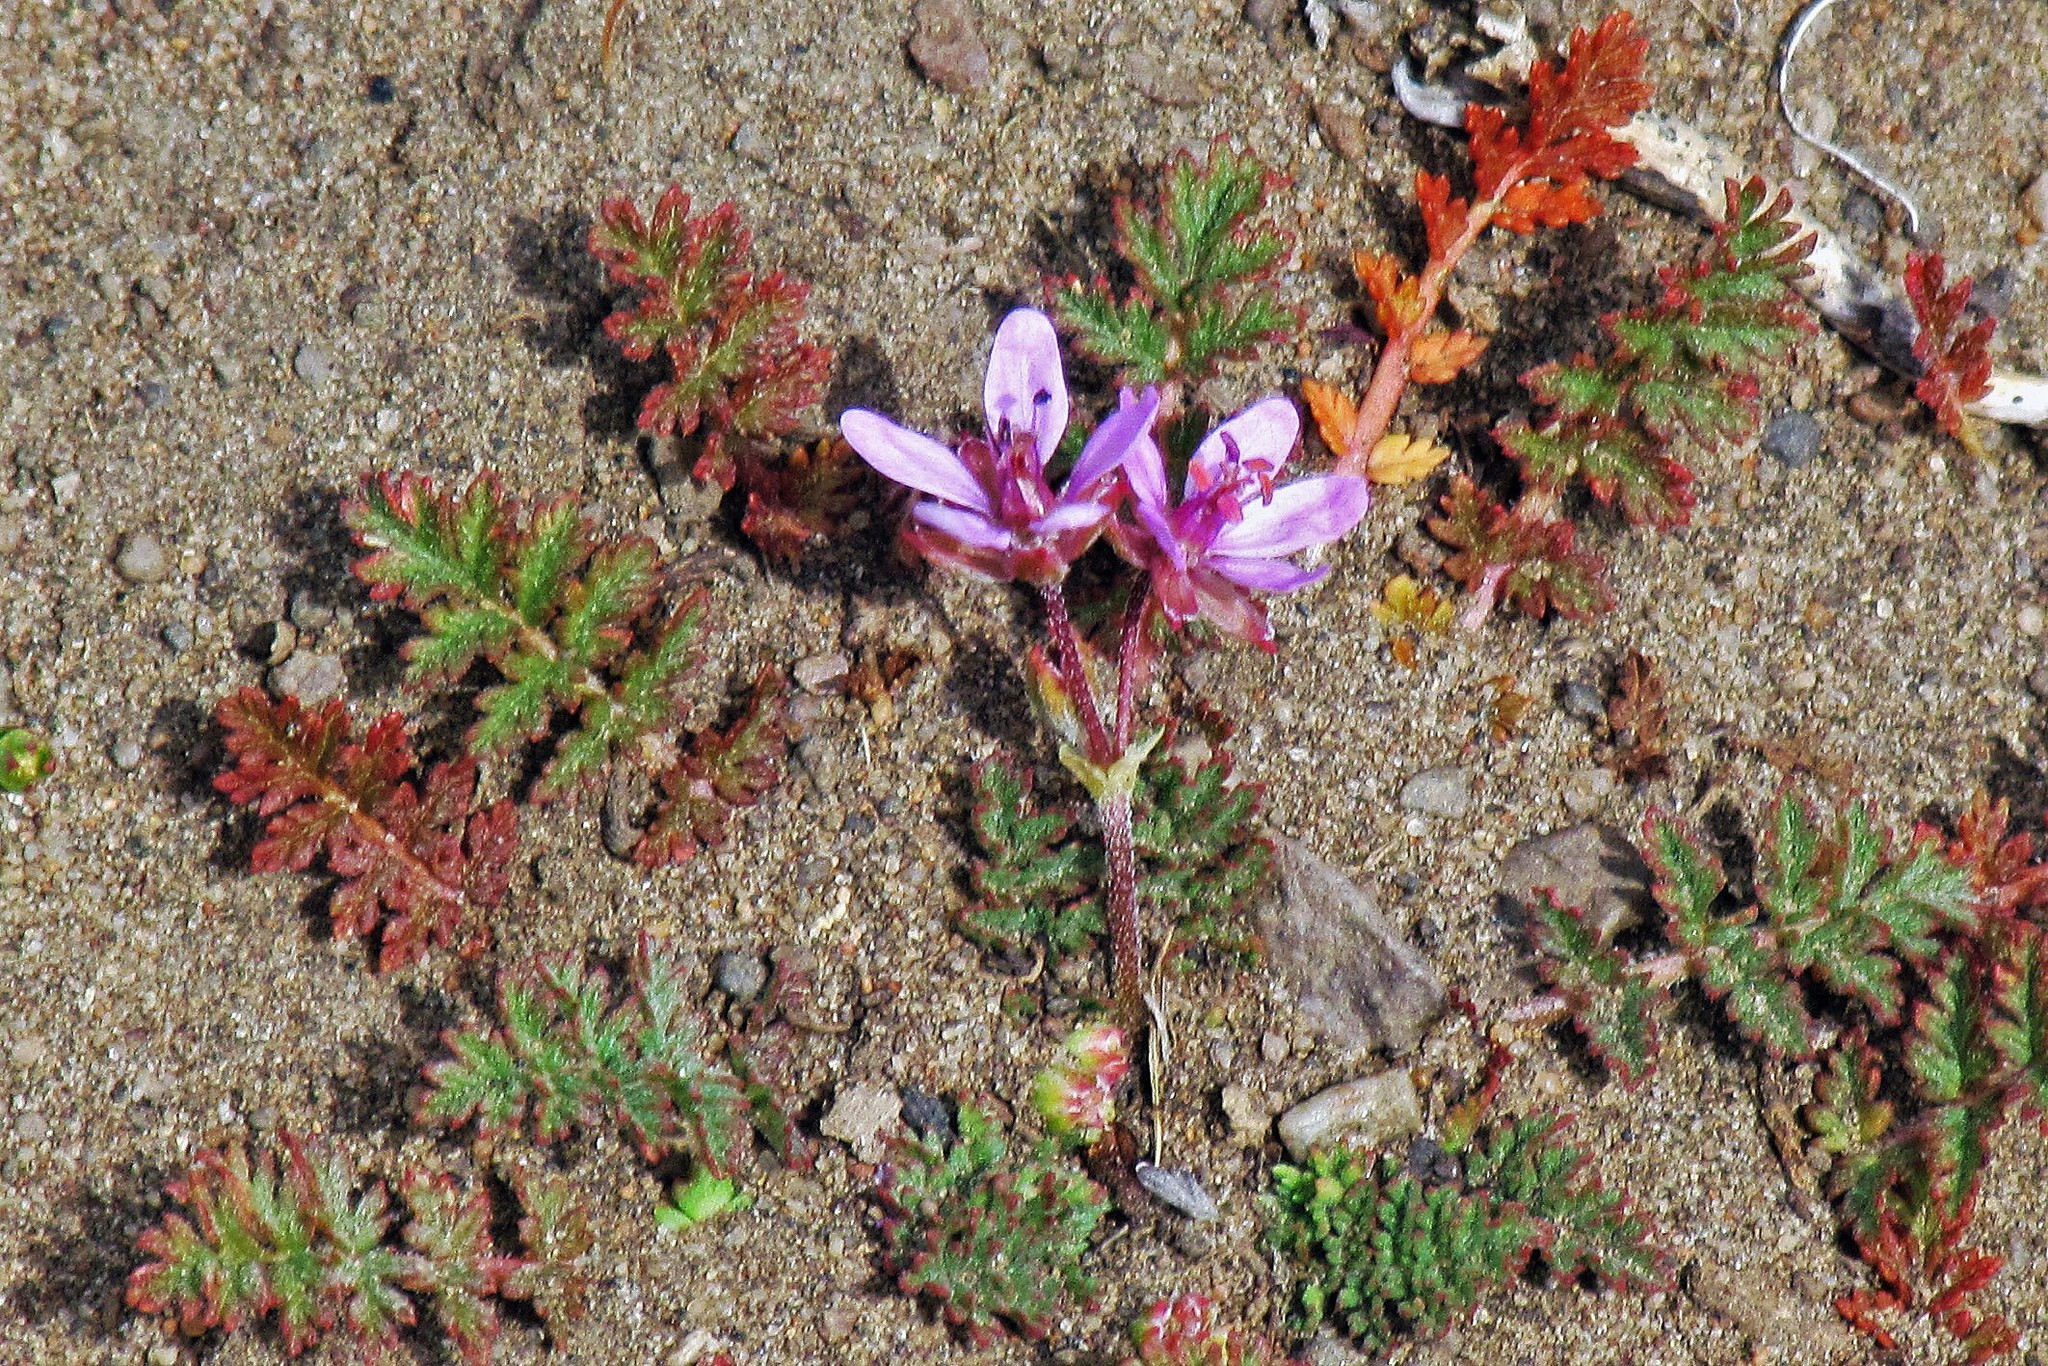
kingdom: Plantae
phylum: Tracheophyta
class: Magnoliopsida
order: Geraniales
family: Geraniaceae
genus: Erodium
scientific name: Erodium cicutarium
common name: Common stork's-bill
